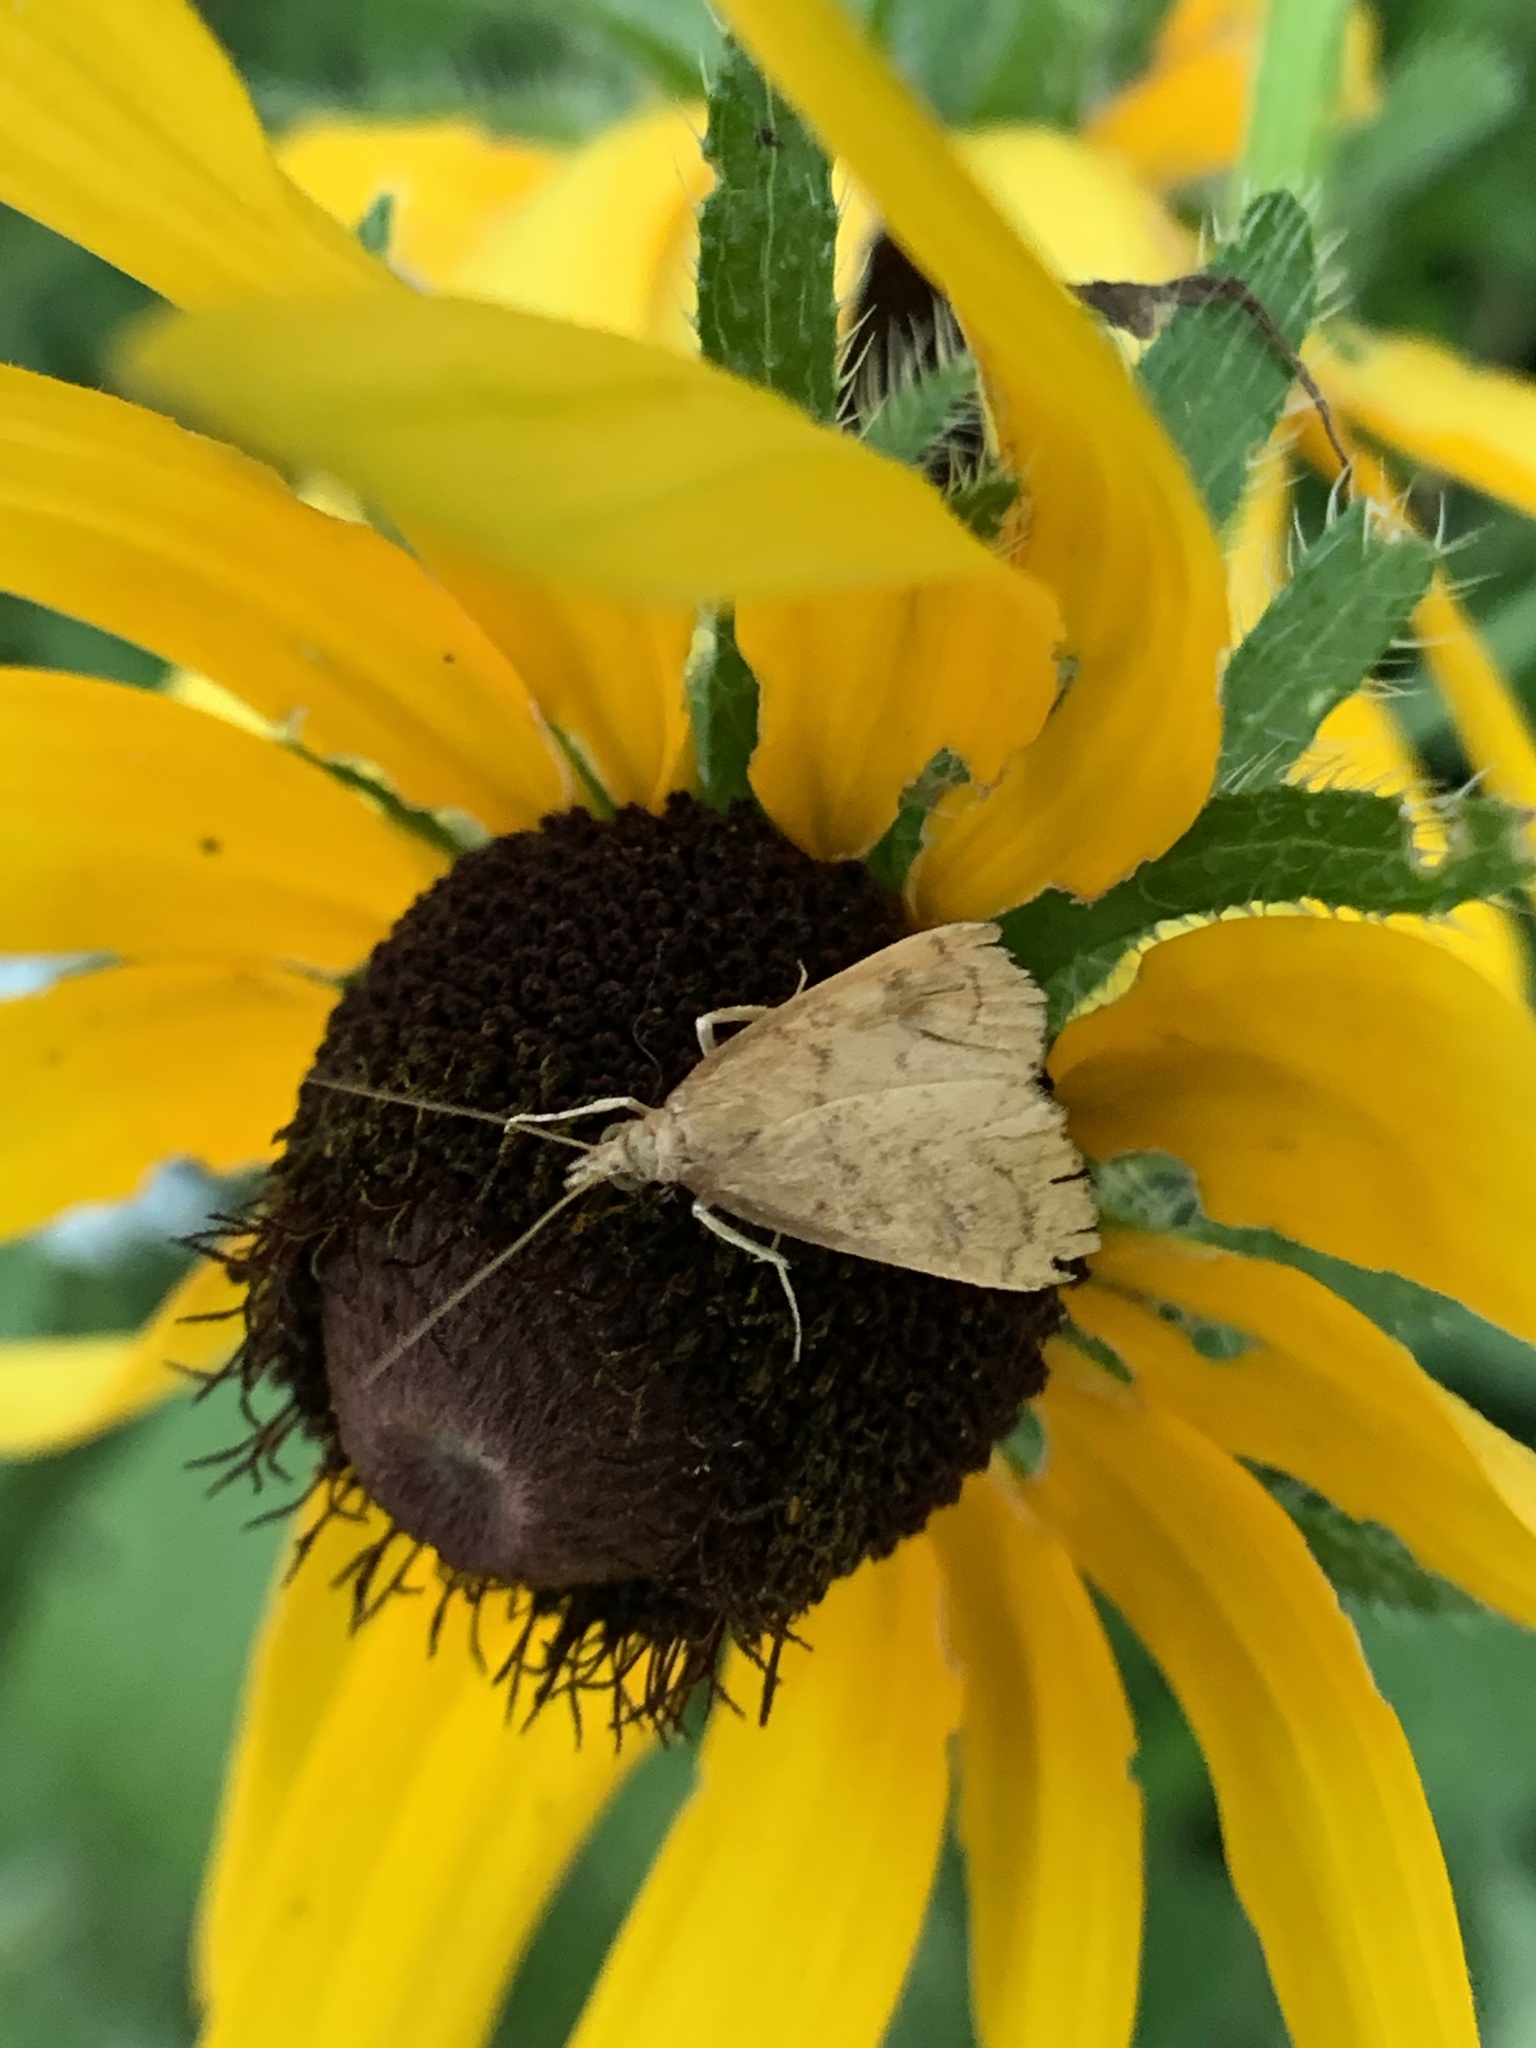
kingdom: Animalia
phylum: Arthropoda
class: Insecta
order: Lepidoptera
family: Crambidae
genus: Udea
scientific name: Udea rubigalis
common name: Celery leaftier moth
